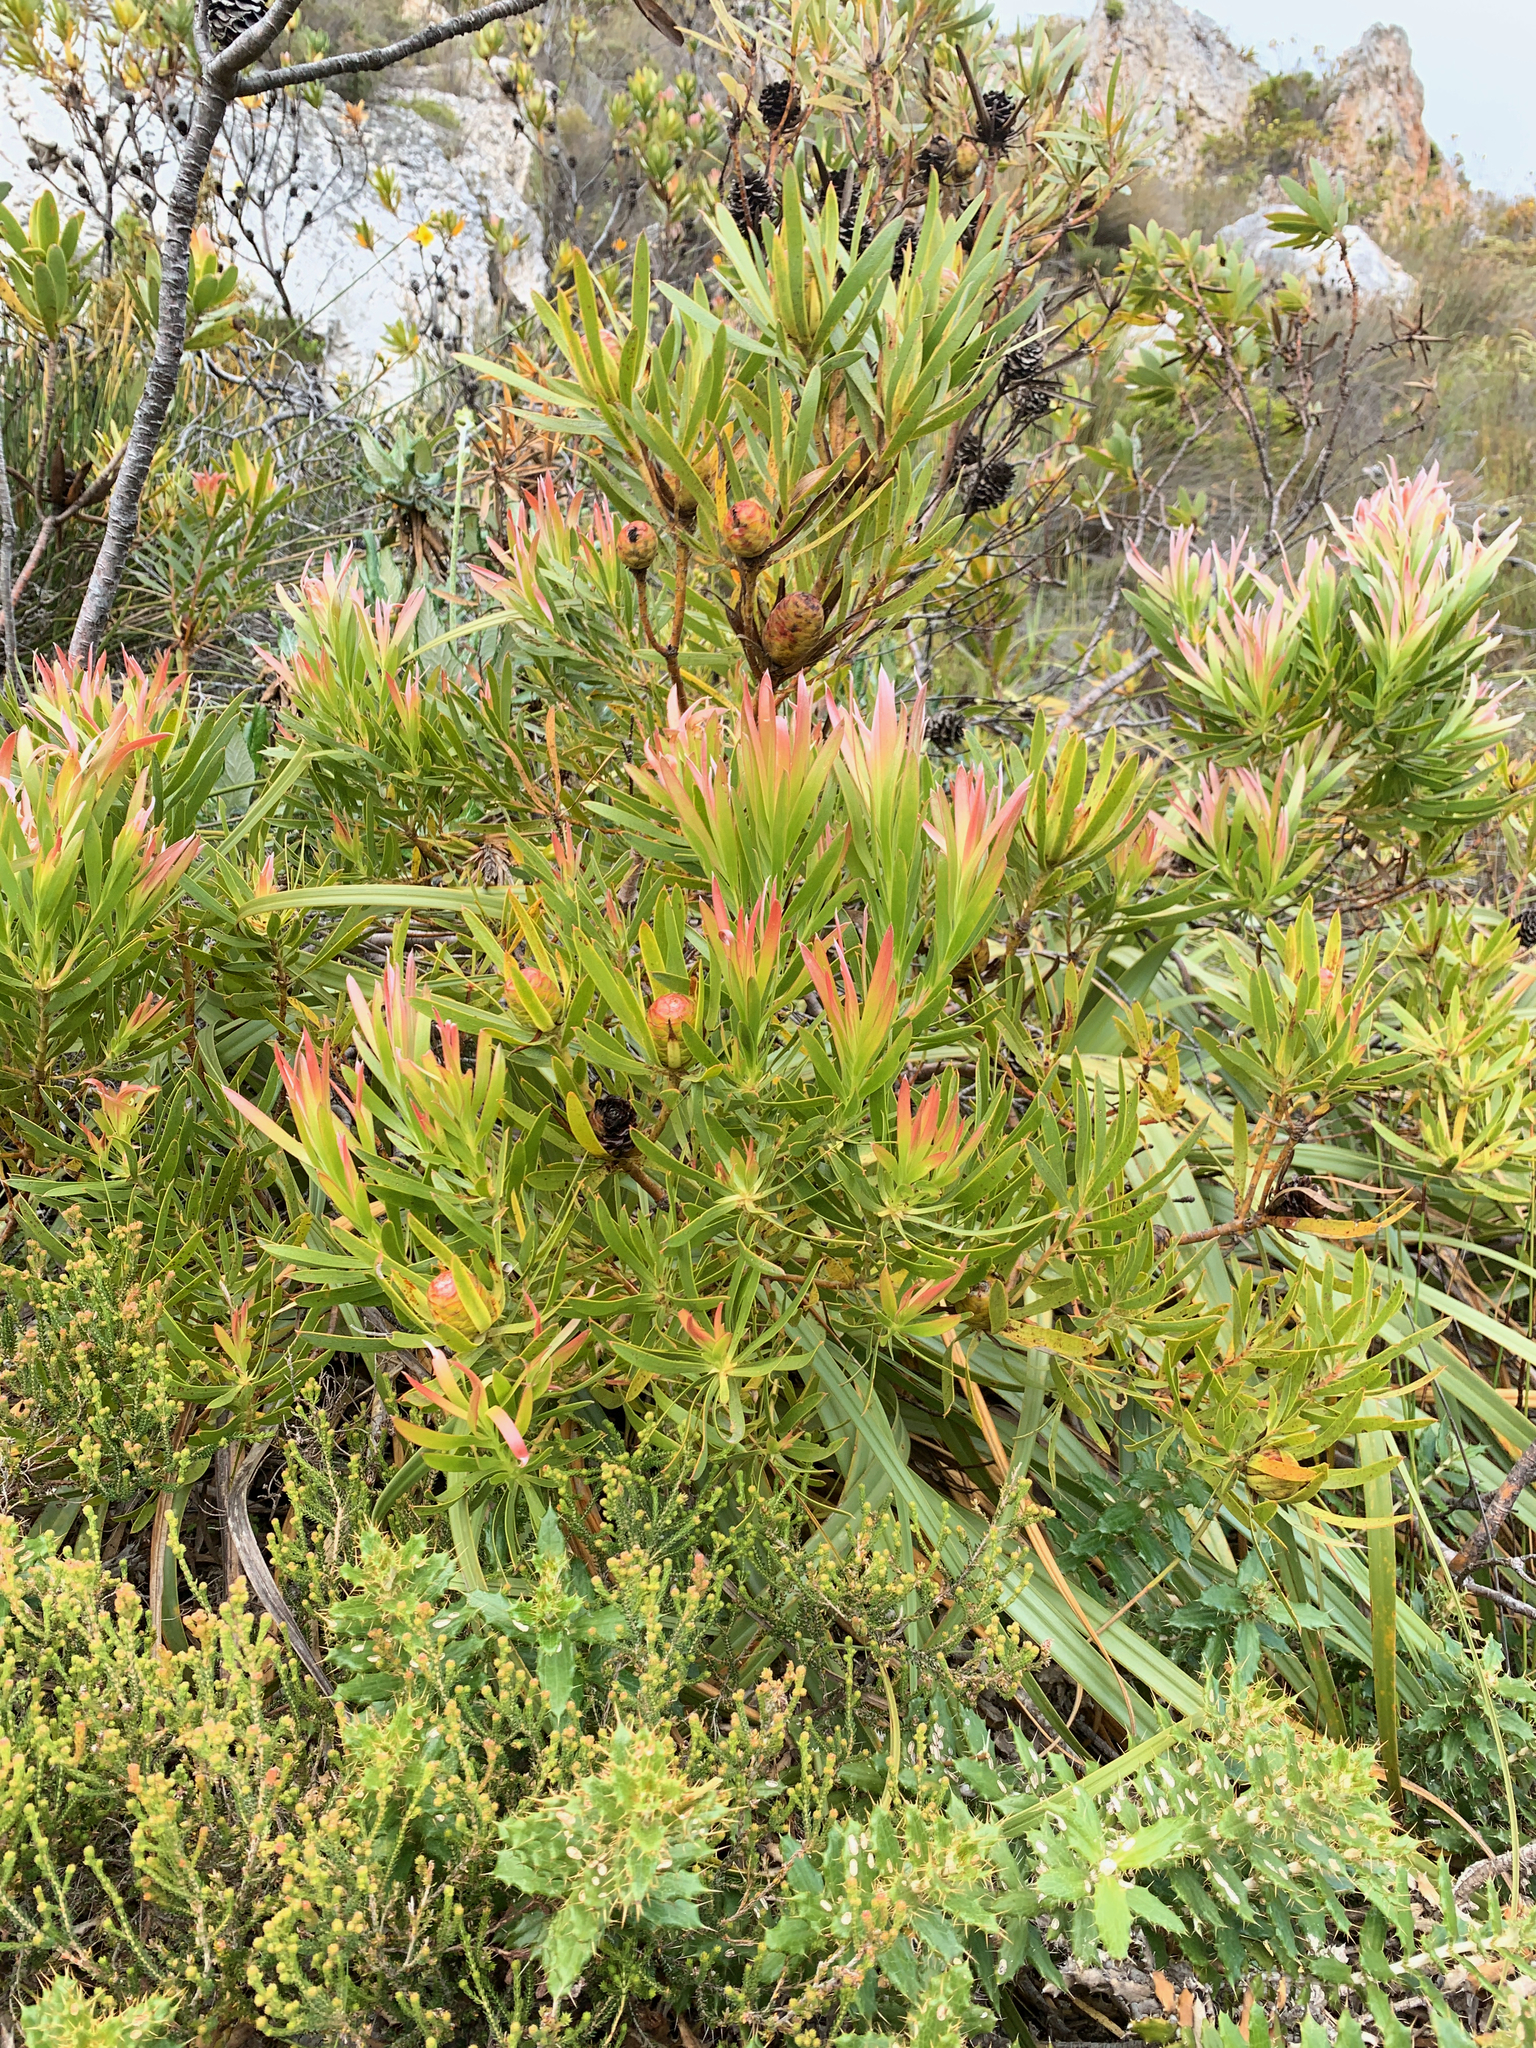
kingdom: Plantae
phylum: Tracheophyta
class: Magnoliopsida
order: Proteales
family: Proteaceae
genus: Leucadendron
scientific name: Leucadendron xanthoconus
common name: Sickle-leaf conebush
